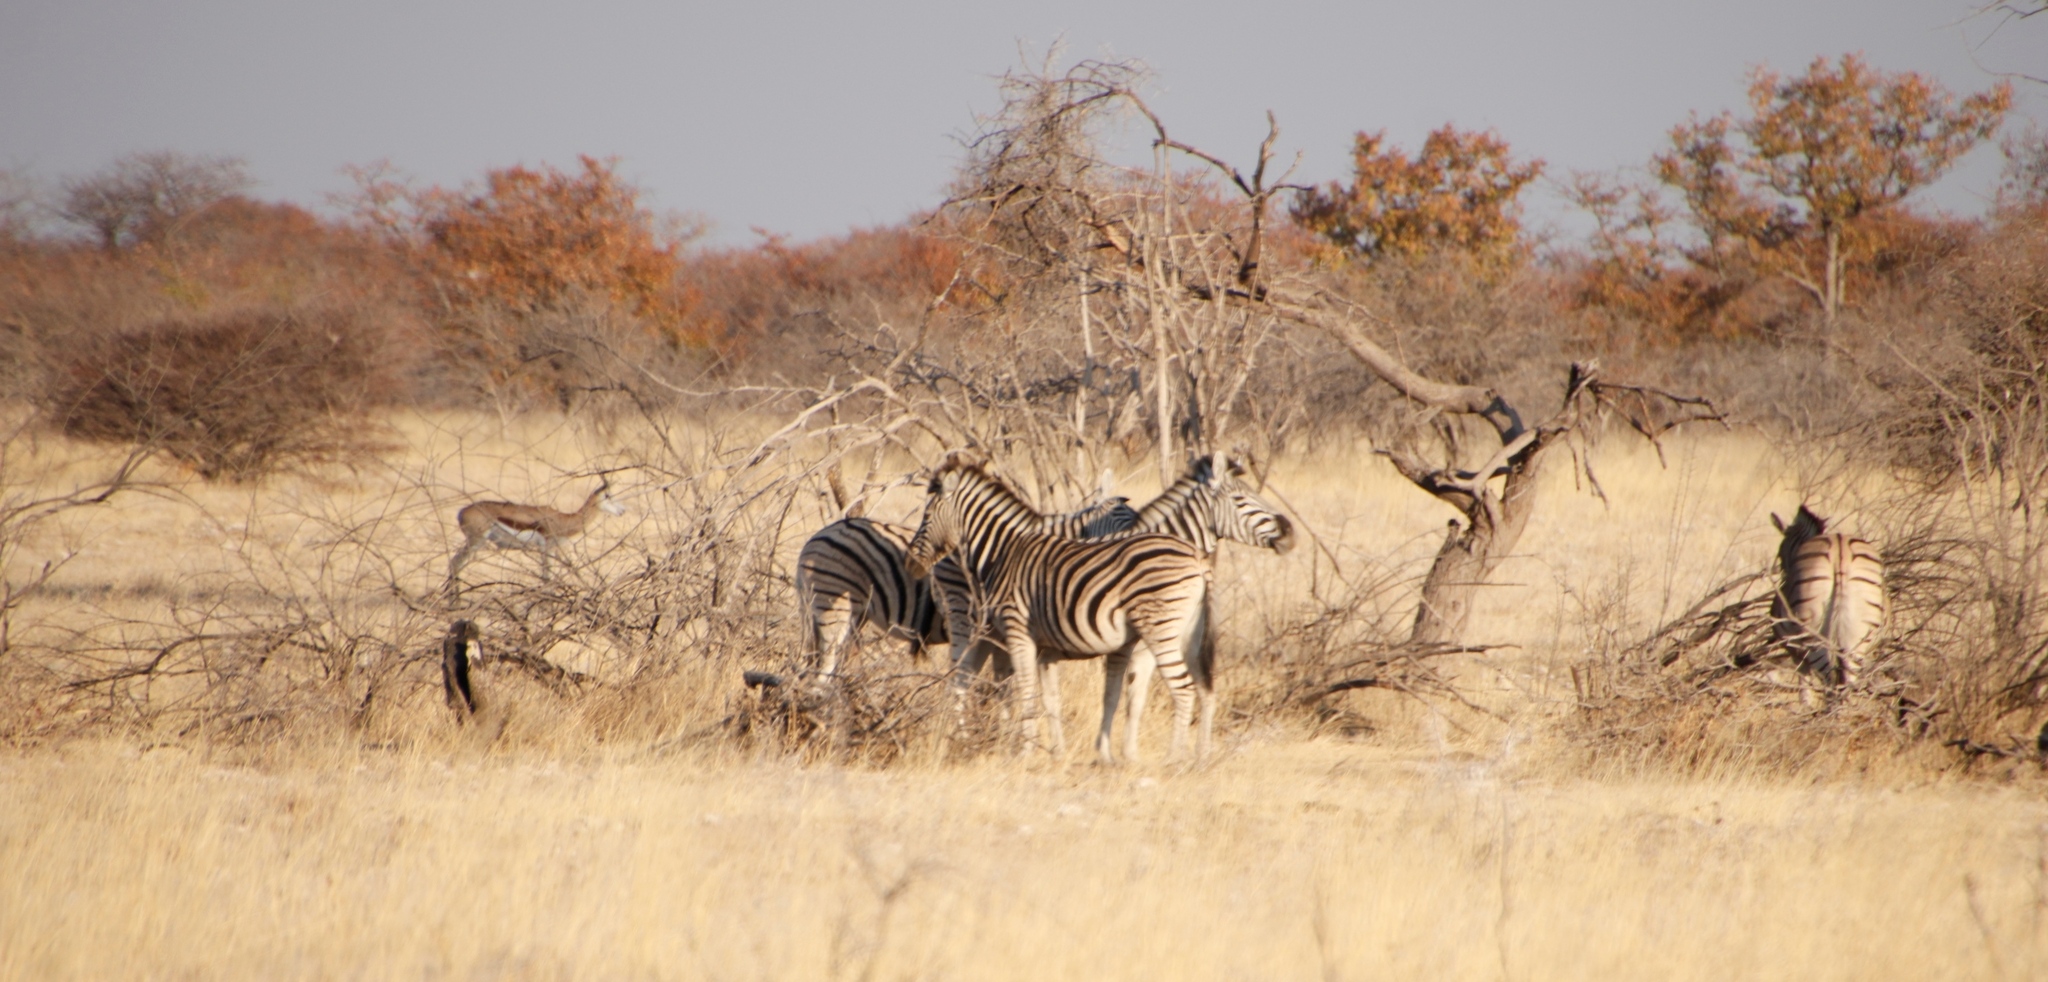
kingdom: Animalia
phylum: Chordata
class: Mammalia
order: Perissodactyla
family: Equidae
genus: Equus
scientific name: Equus quagga
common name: Plains zebra
